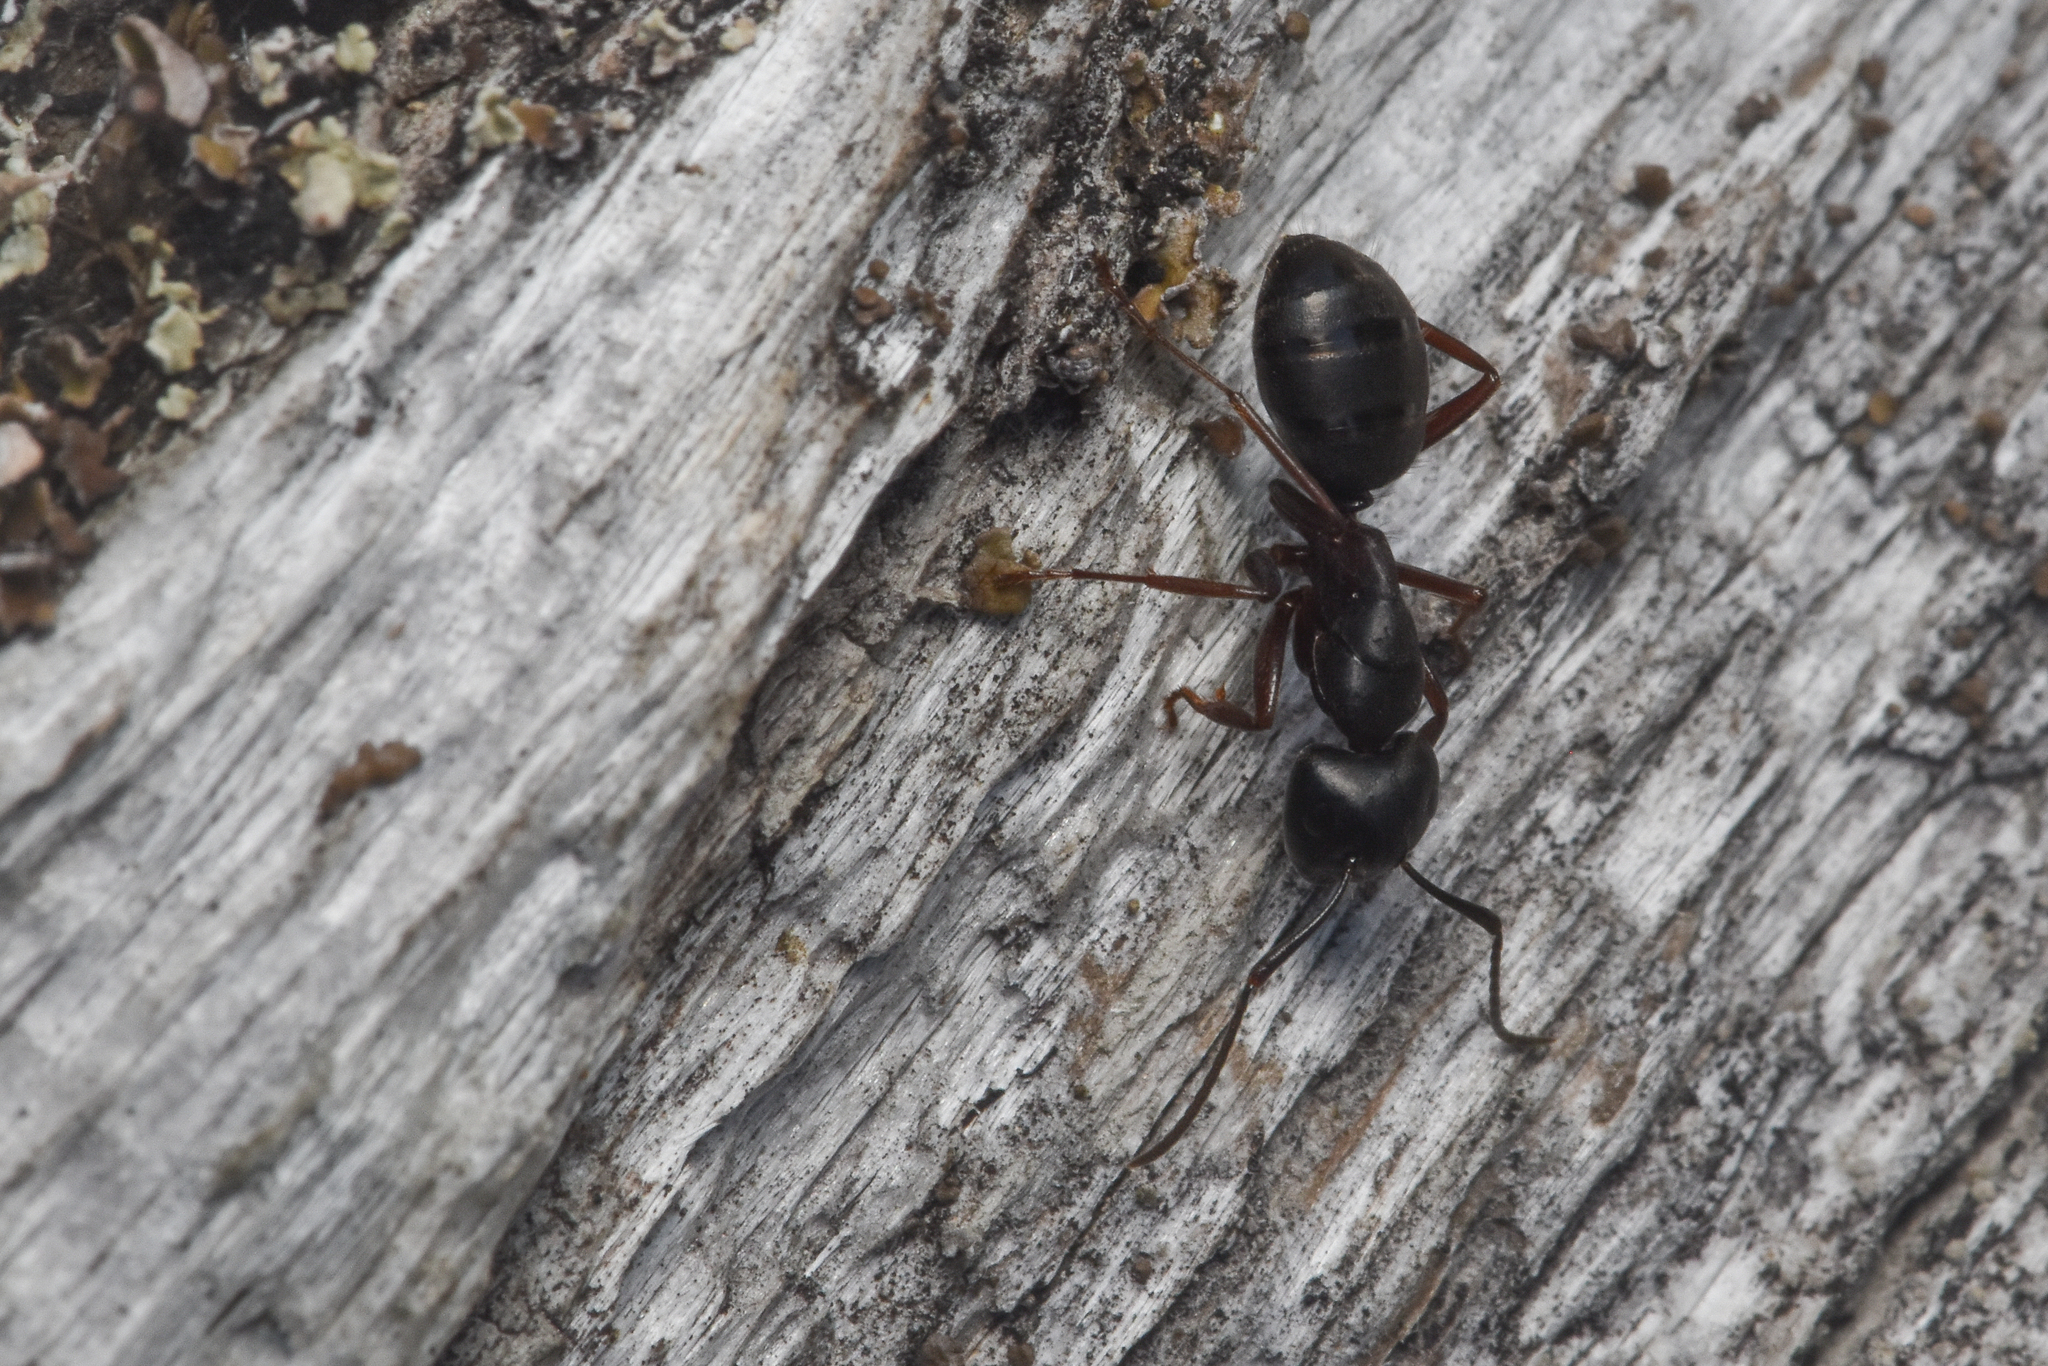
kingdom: Animalia
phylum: Arthropoda
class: Insecta
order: Hymenoptera
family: Formicidae
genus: Camponotus
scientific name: Camponotus herculeanus
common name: Hercules ant
